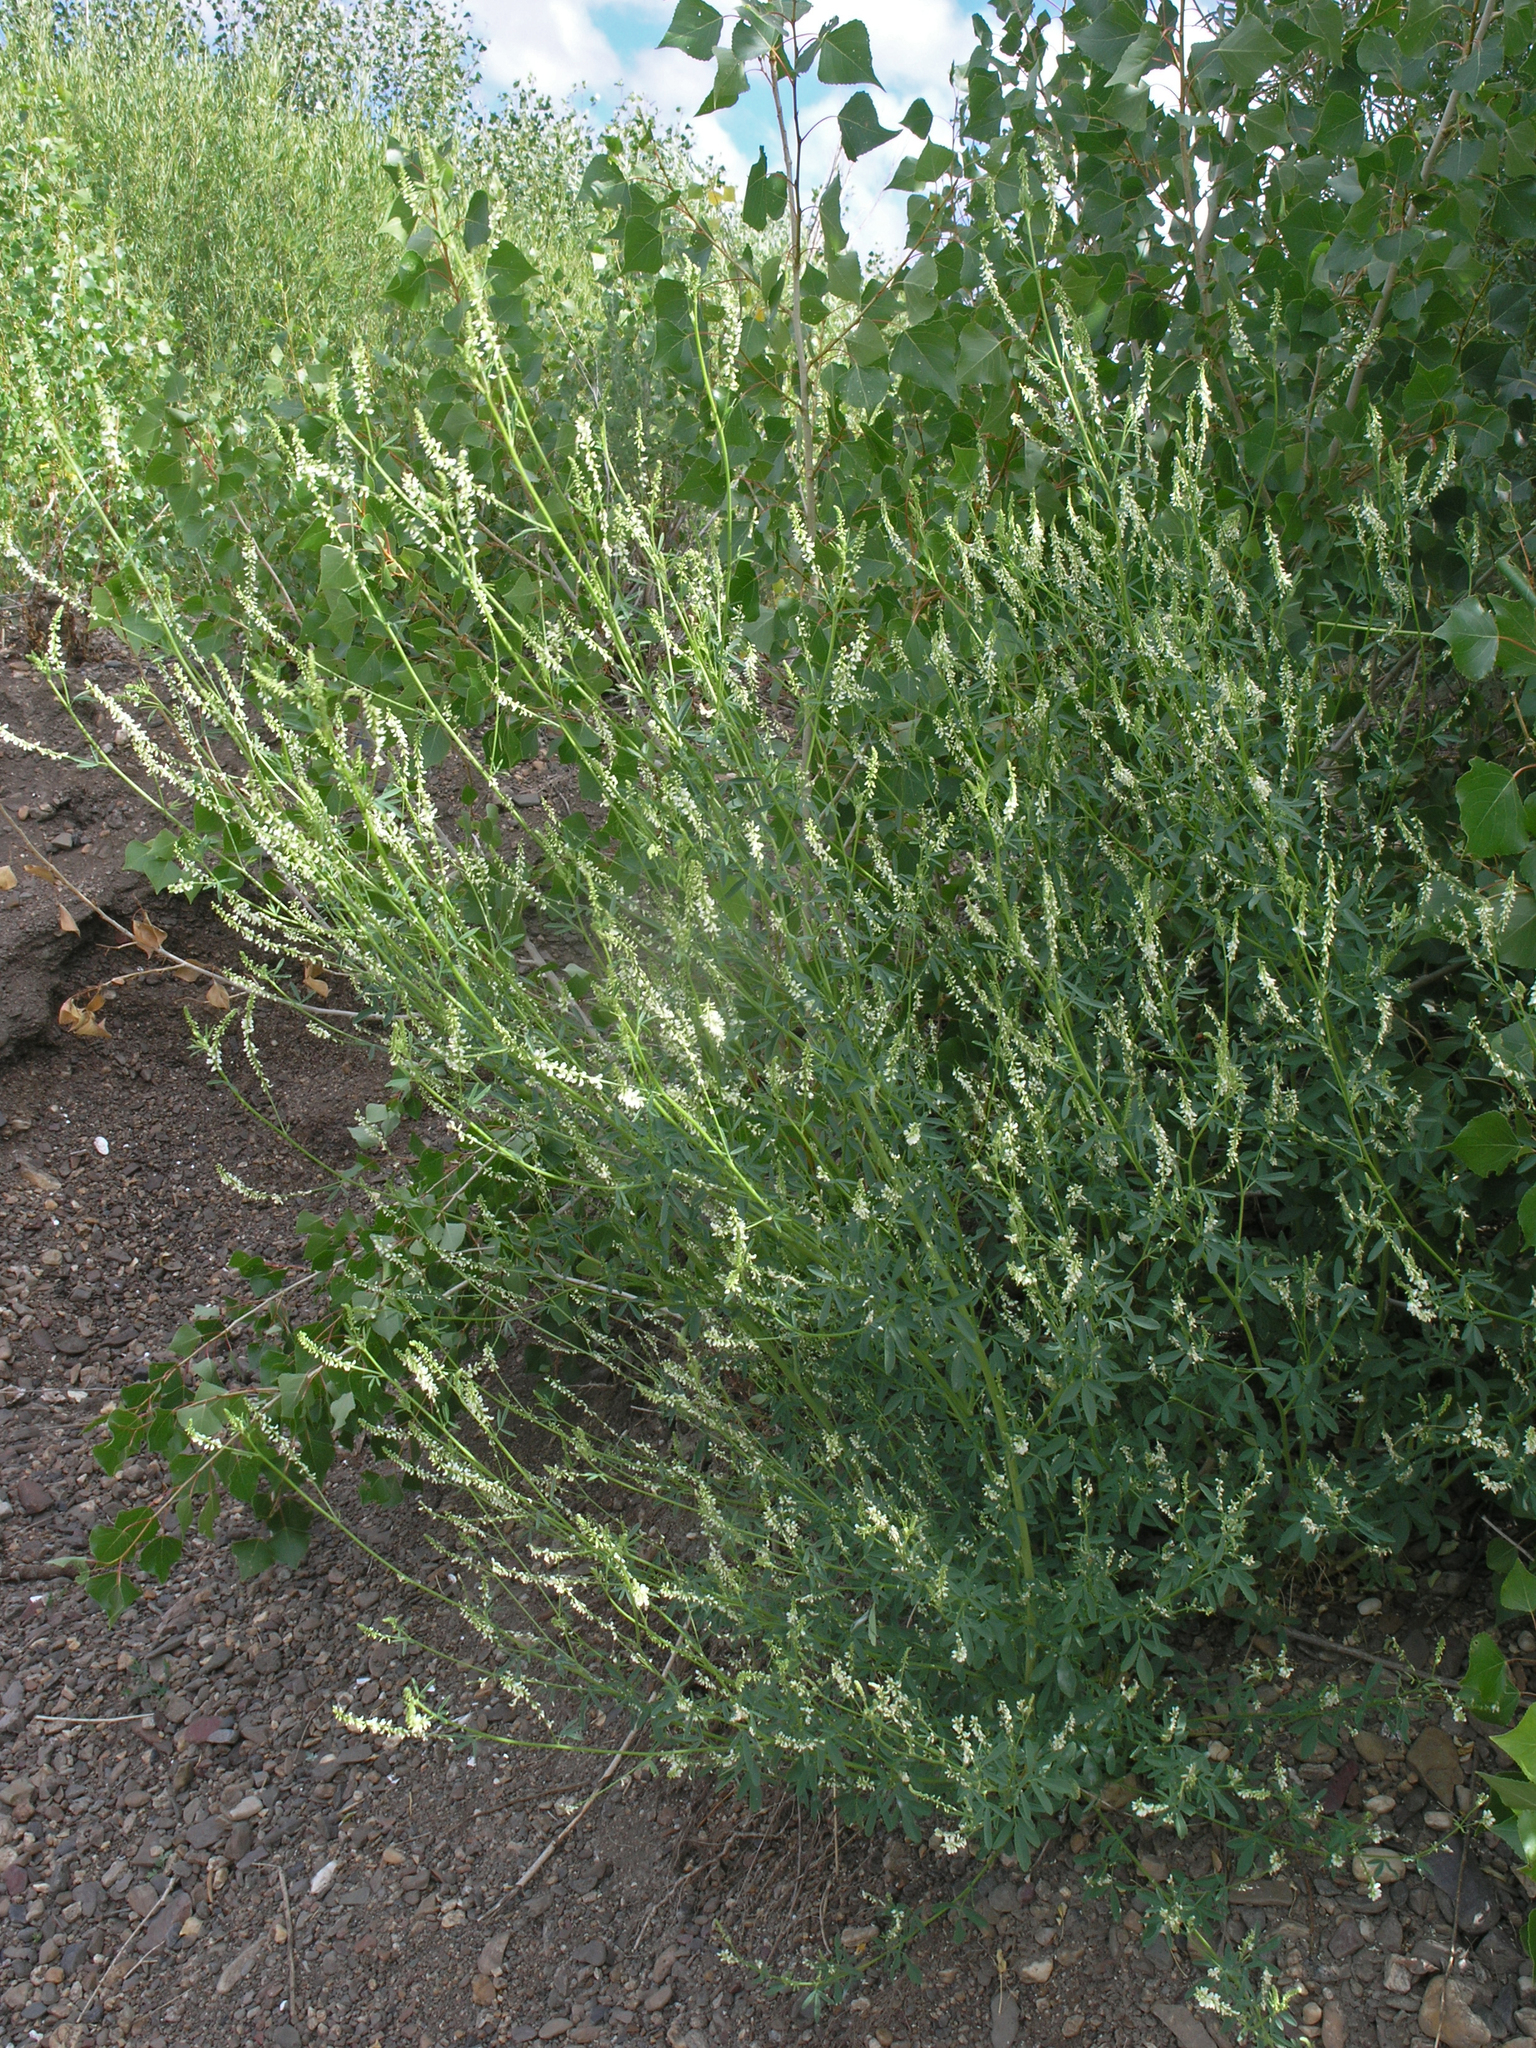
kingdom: Plantae
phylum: Tracheophyta
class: Magnoliopsida
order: Fabales
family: Fabaceae
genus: Melilotus
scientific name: Melilotus albus
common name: White melilot
